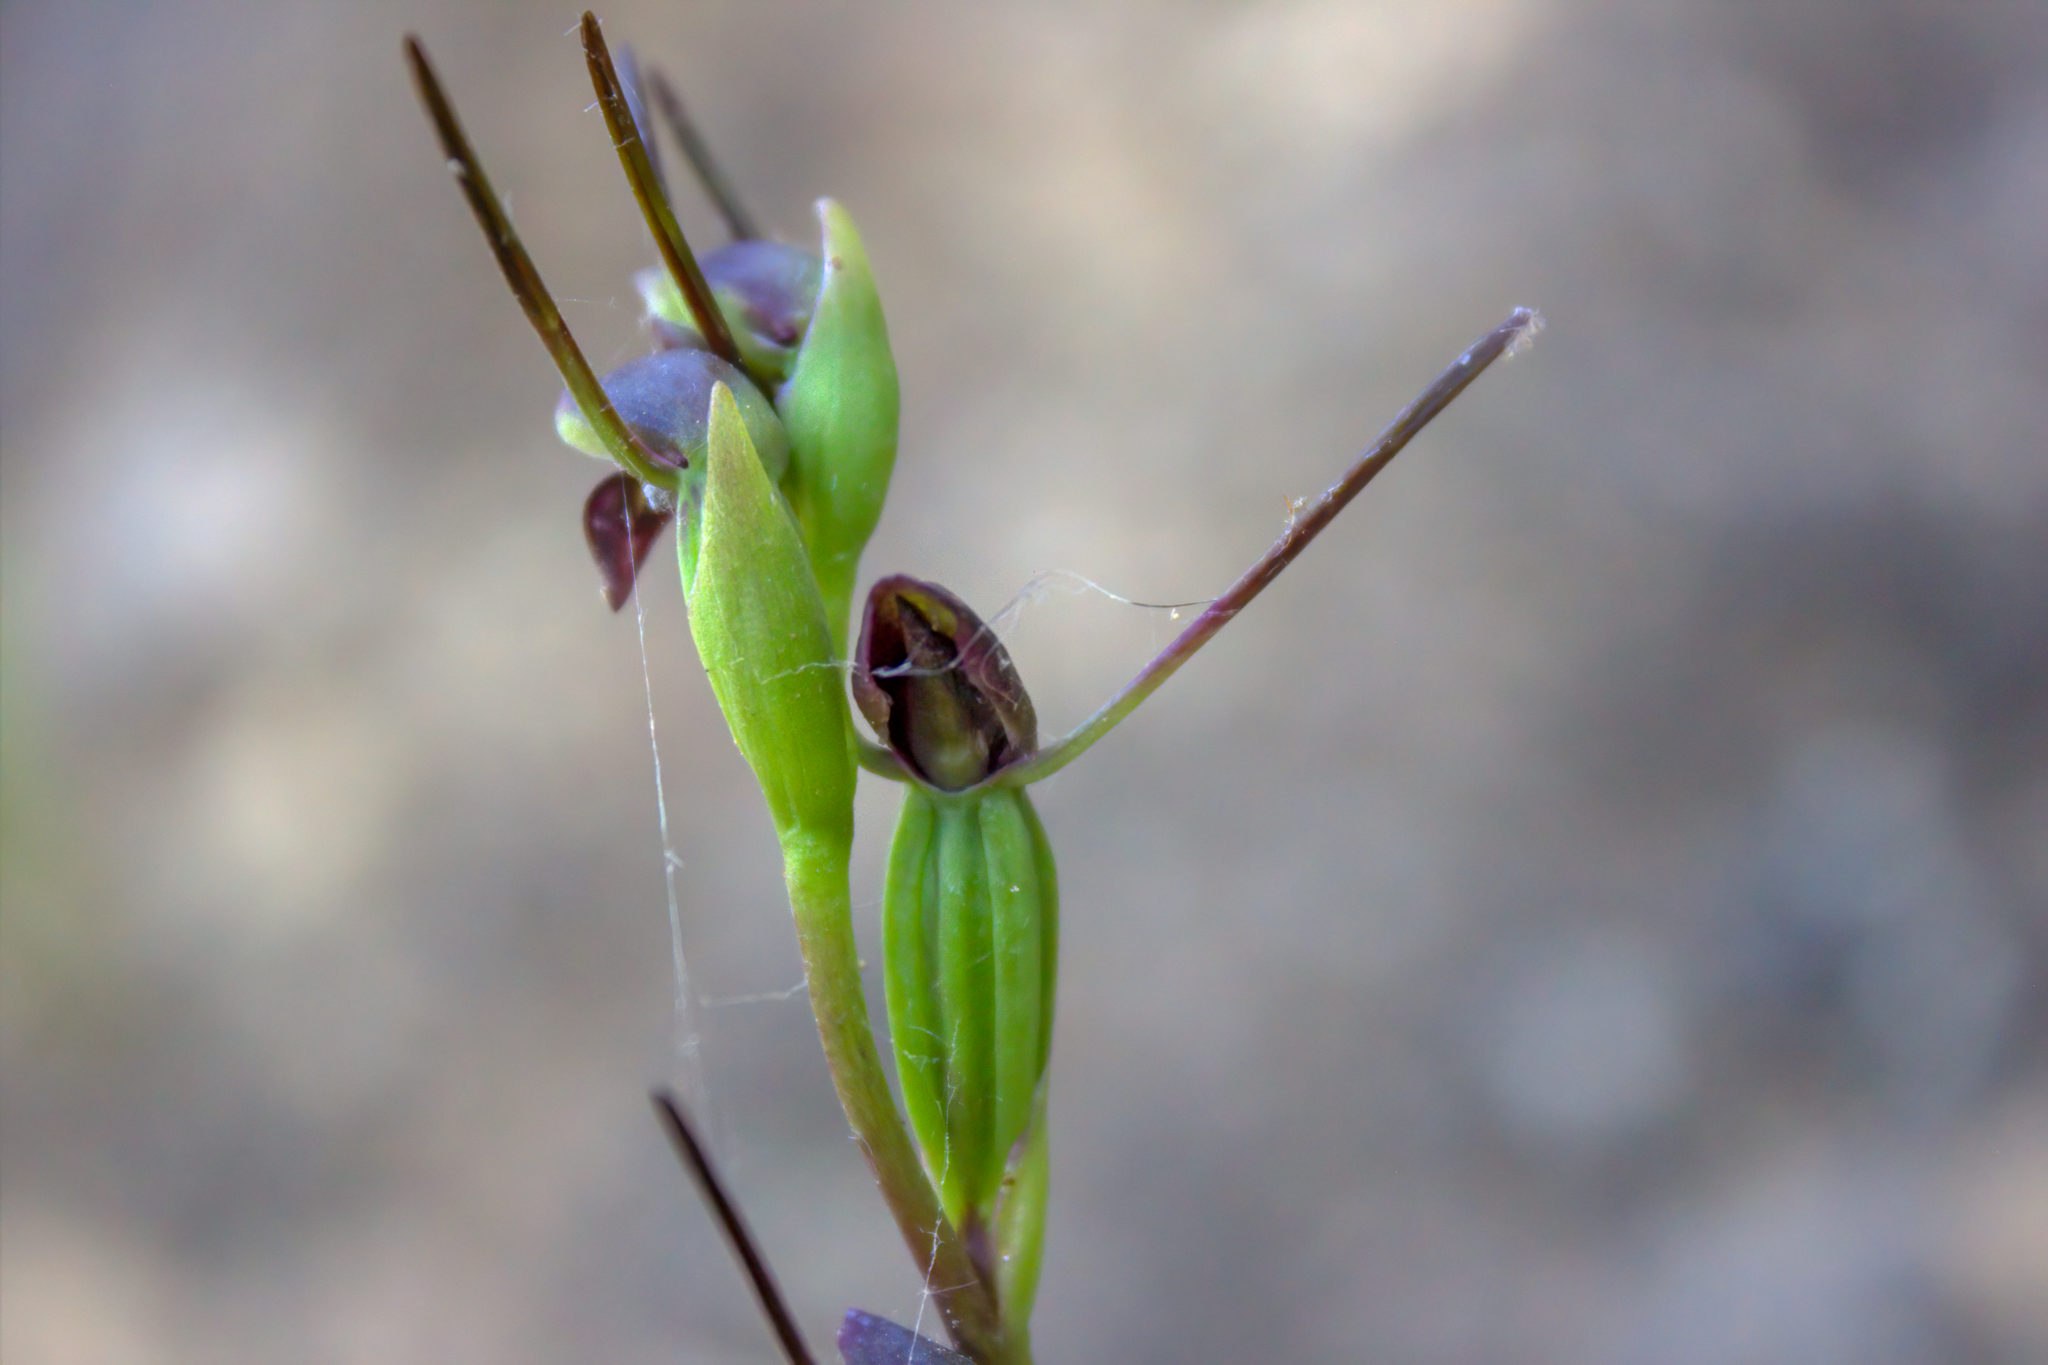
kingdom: Plantae
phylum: Tracheophyta
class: Liliopsida
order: Asparagales
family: Orchidaceae
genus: Orthoceras
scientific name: Orthoceras novae-zeelandiae
